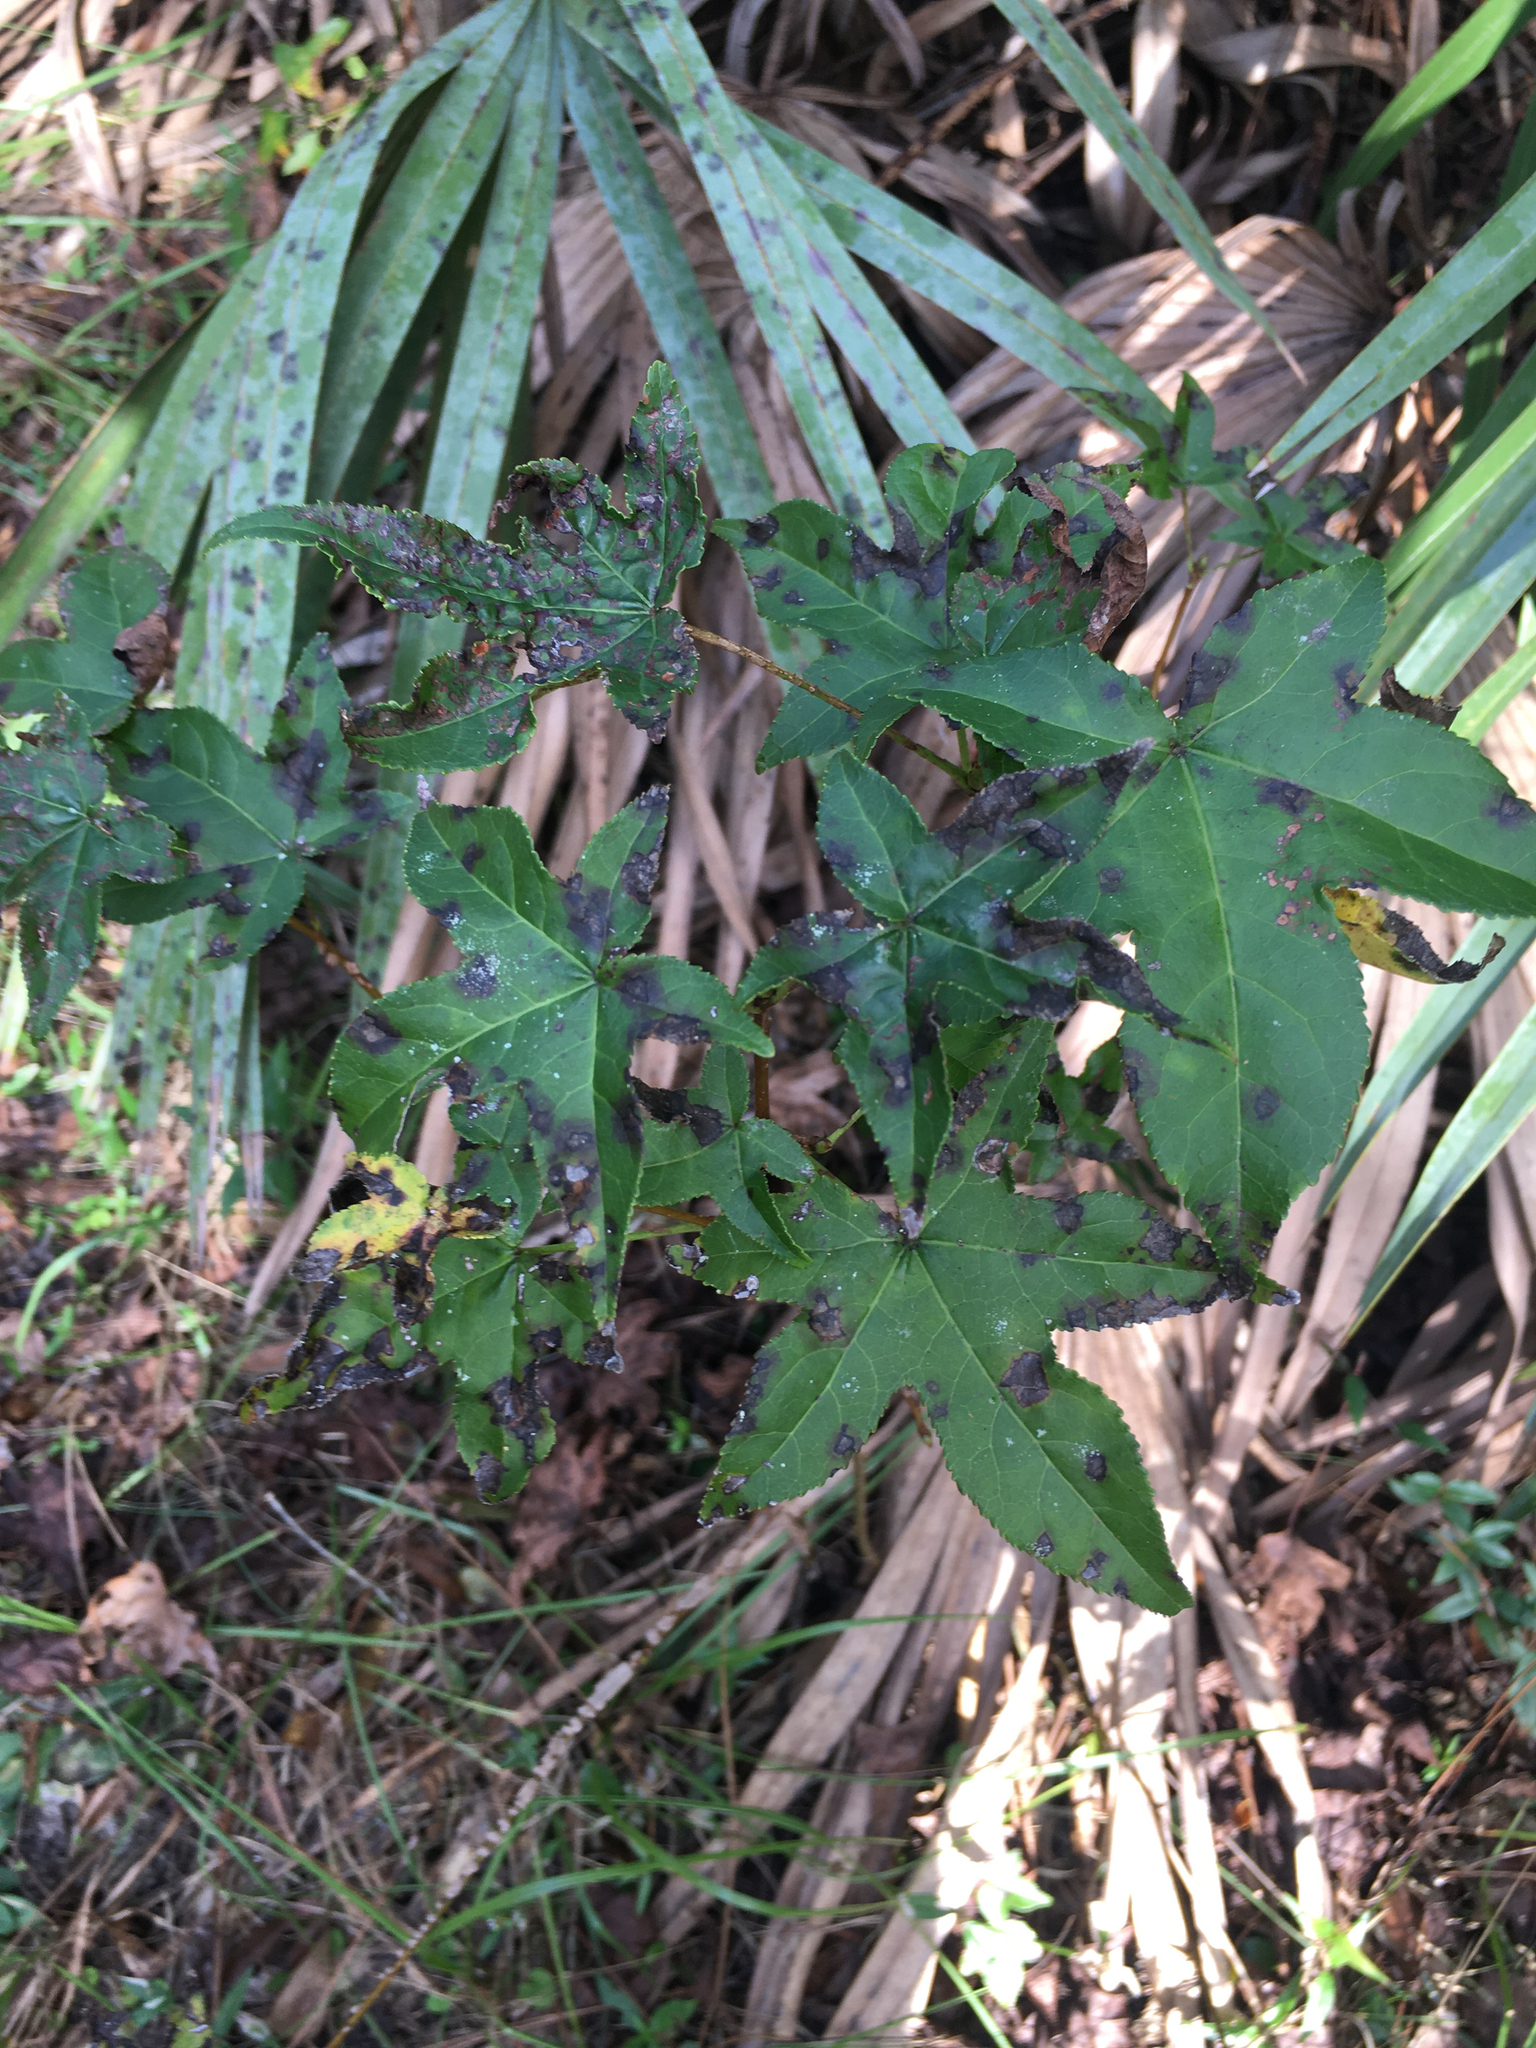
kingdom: Plantae
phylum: Tracheophyta
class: Magnoliopsida
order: Saxifragales
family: Altingiaceae
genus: Liquidambar
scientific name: Liquidambar styraciflua
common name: Sweet gum
